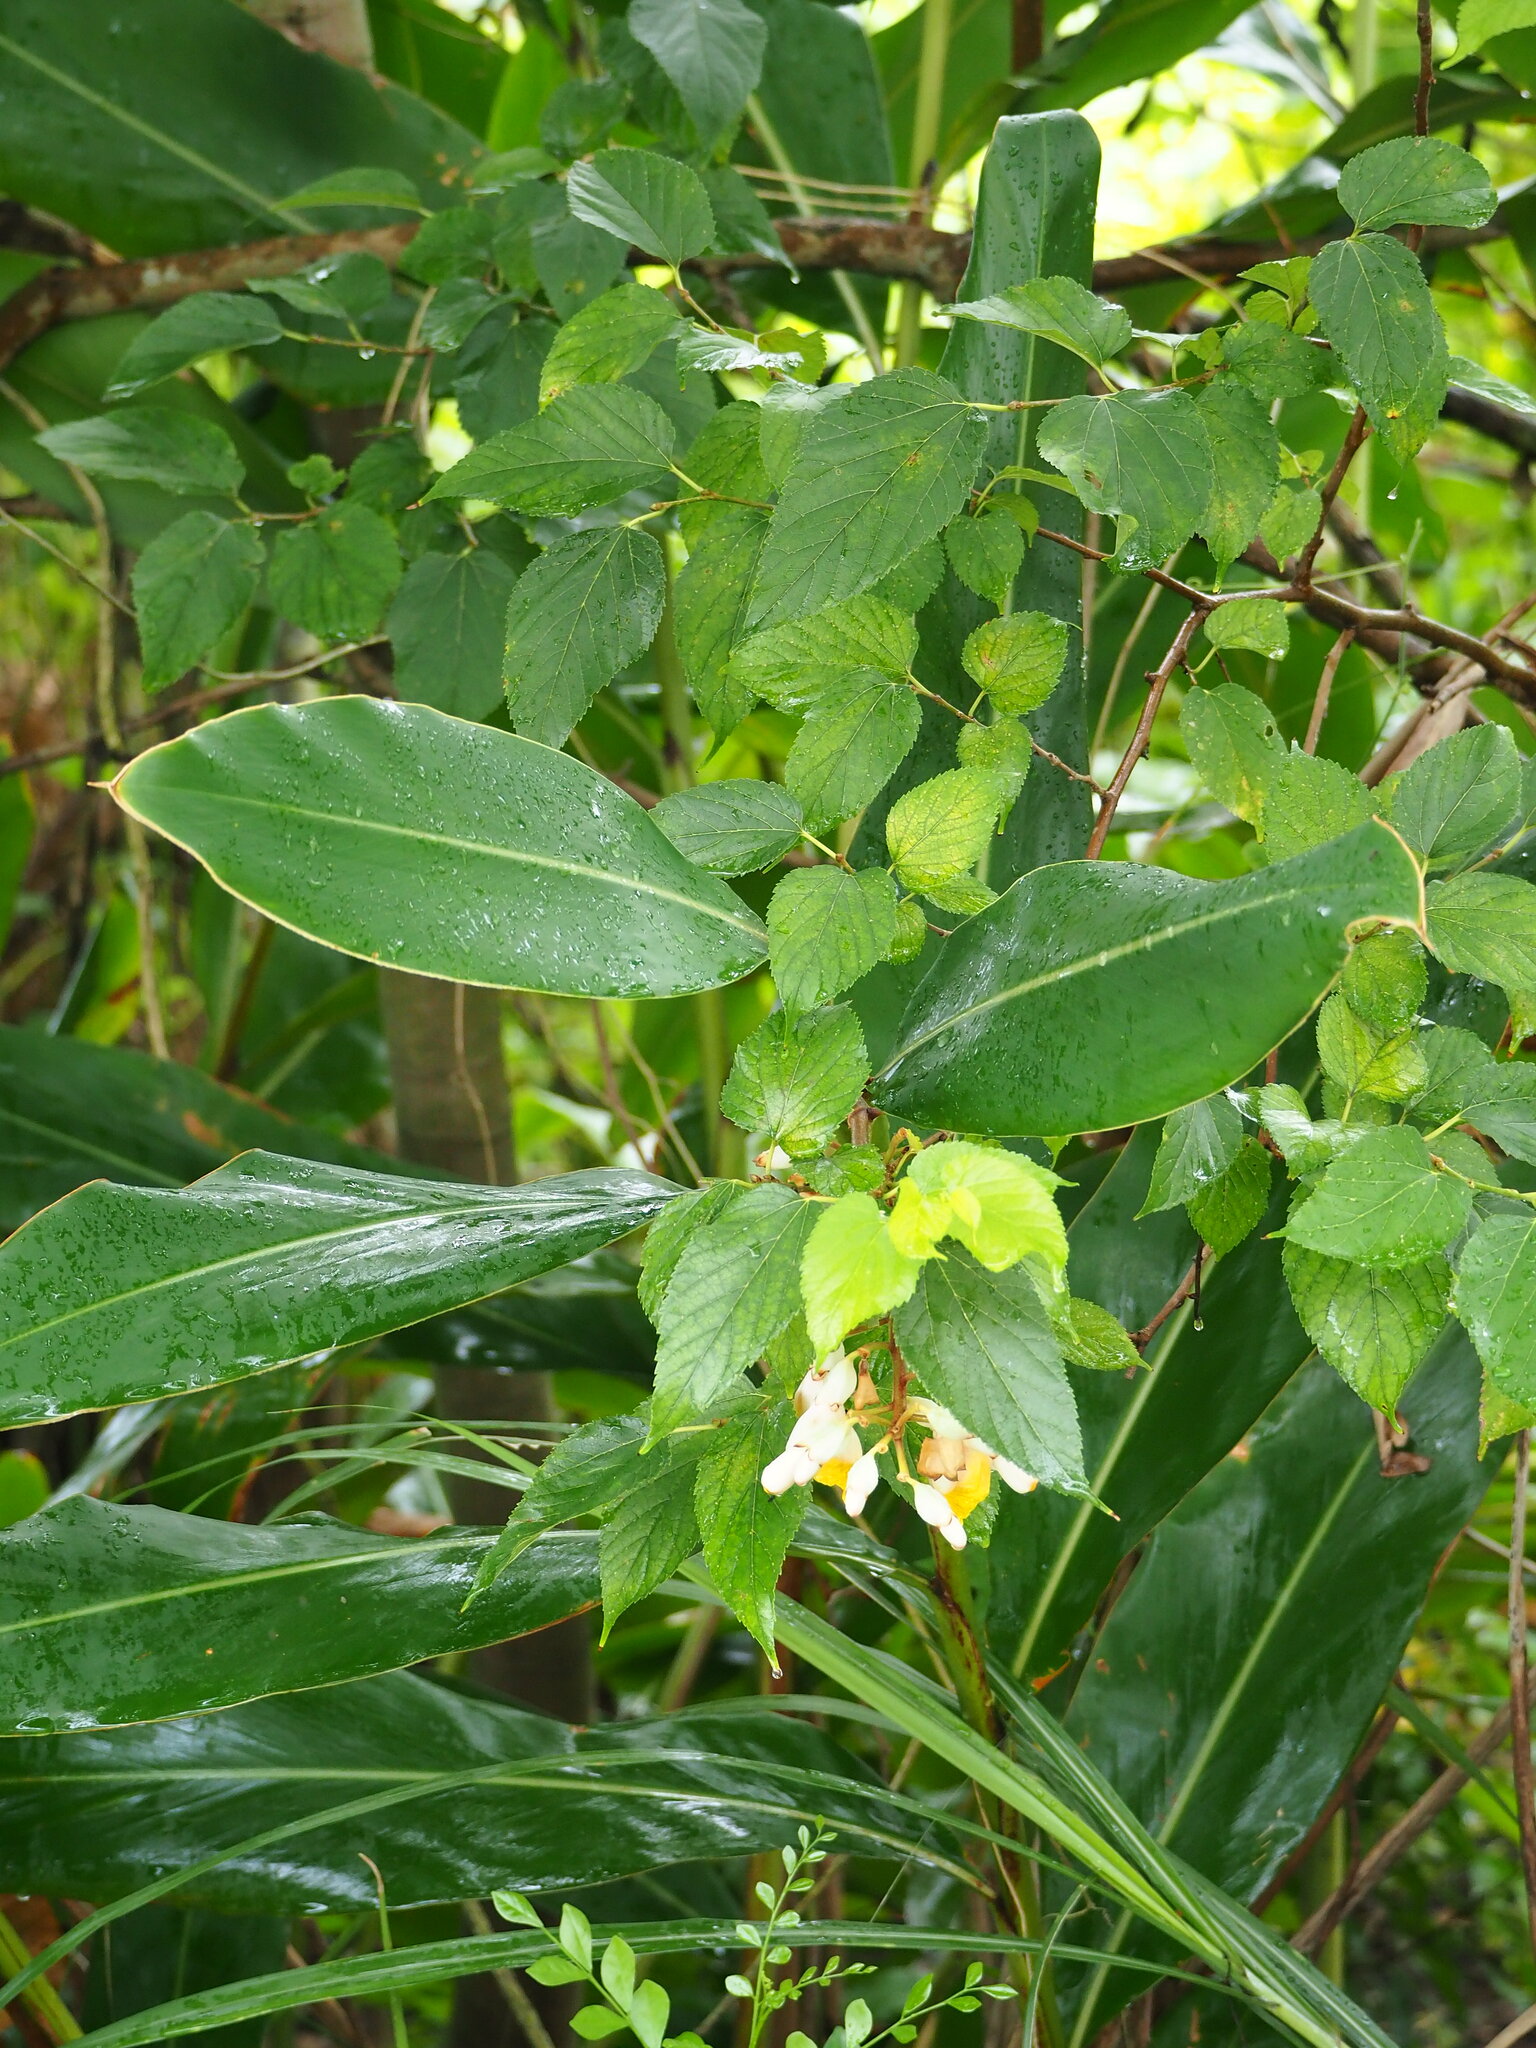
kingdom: Plantae
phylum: Tracheophyta
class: Liliopsida
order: Zingiberales
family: Zingiberaceae
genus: Alpinia
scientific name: Alpinia zerumbet
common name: Shellplant
